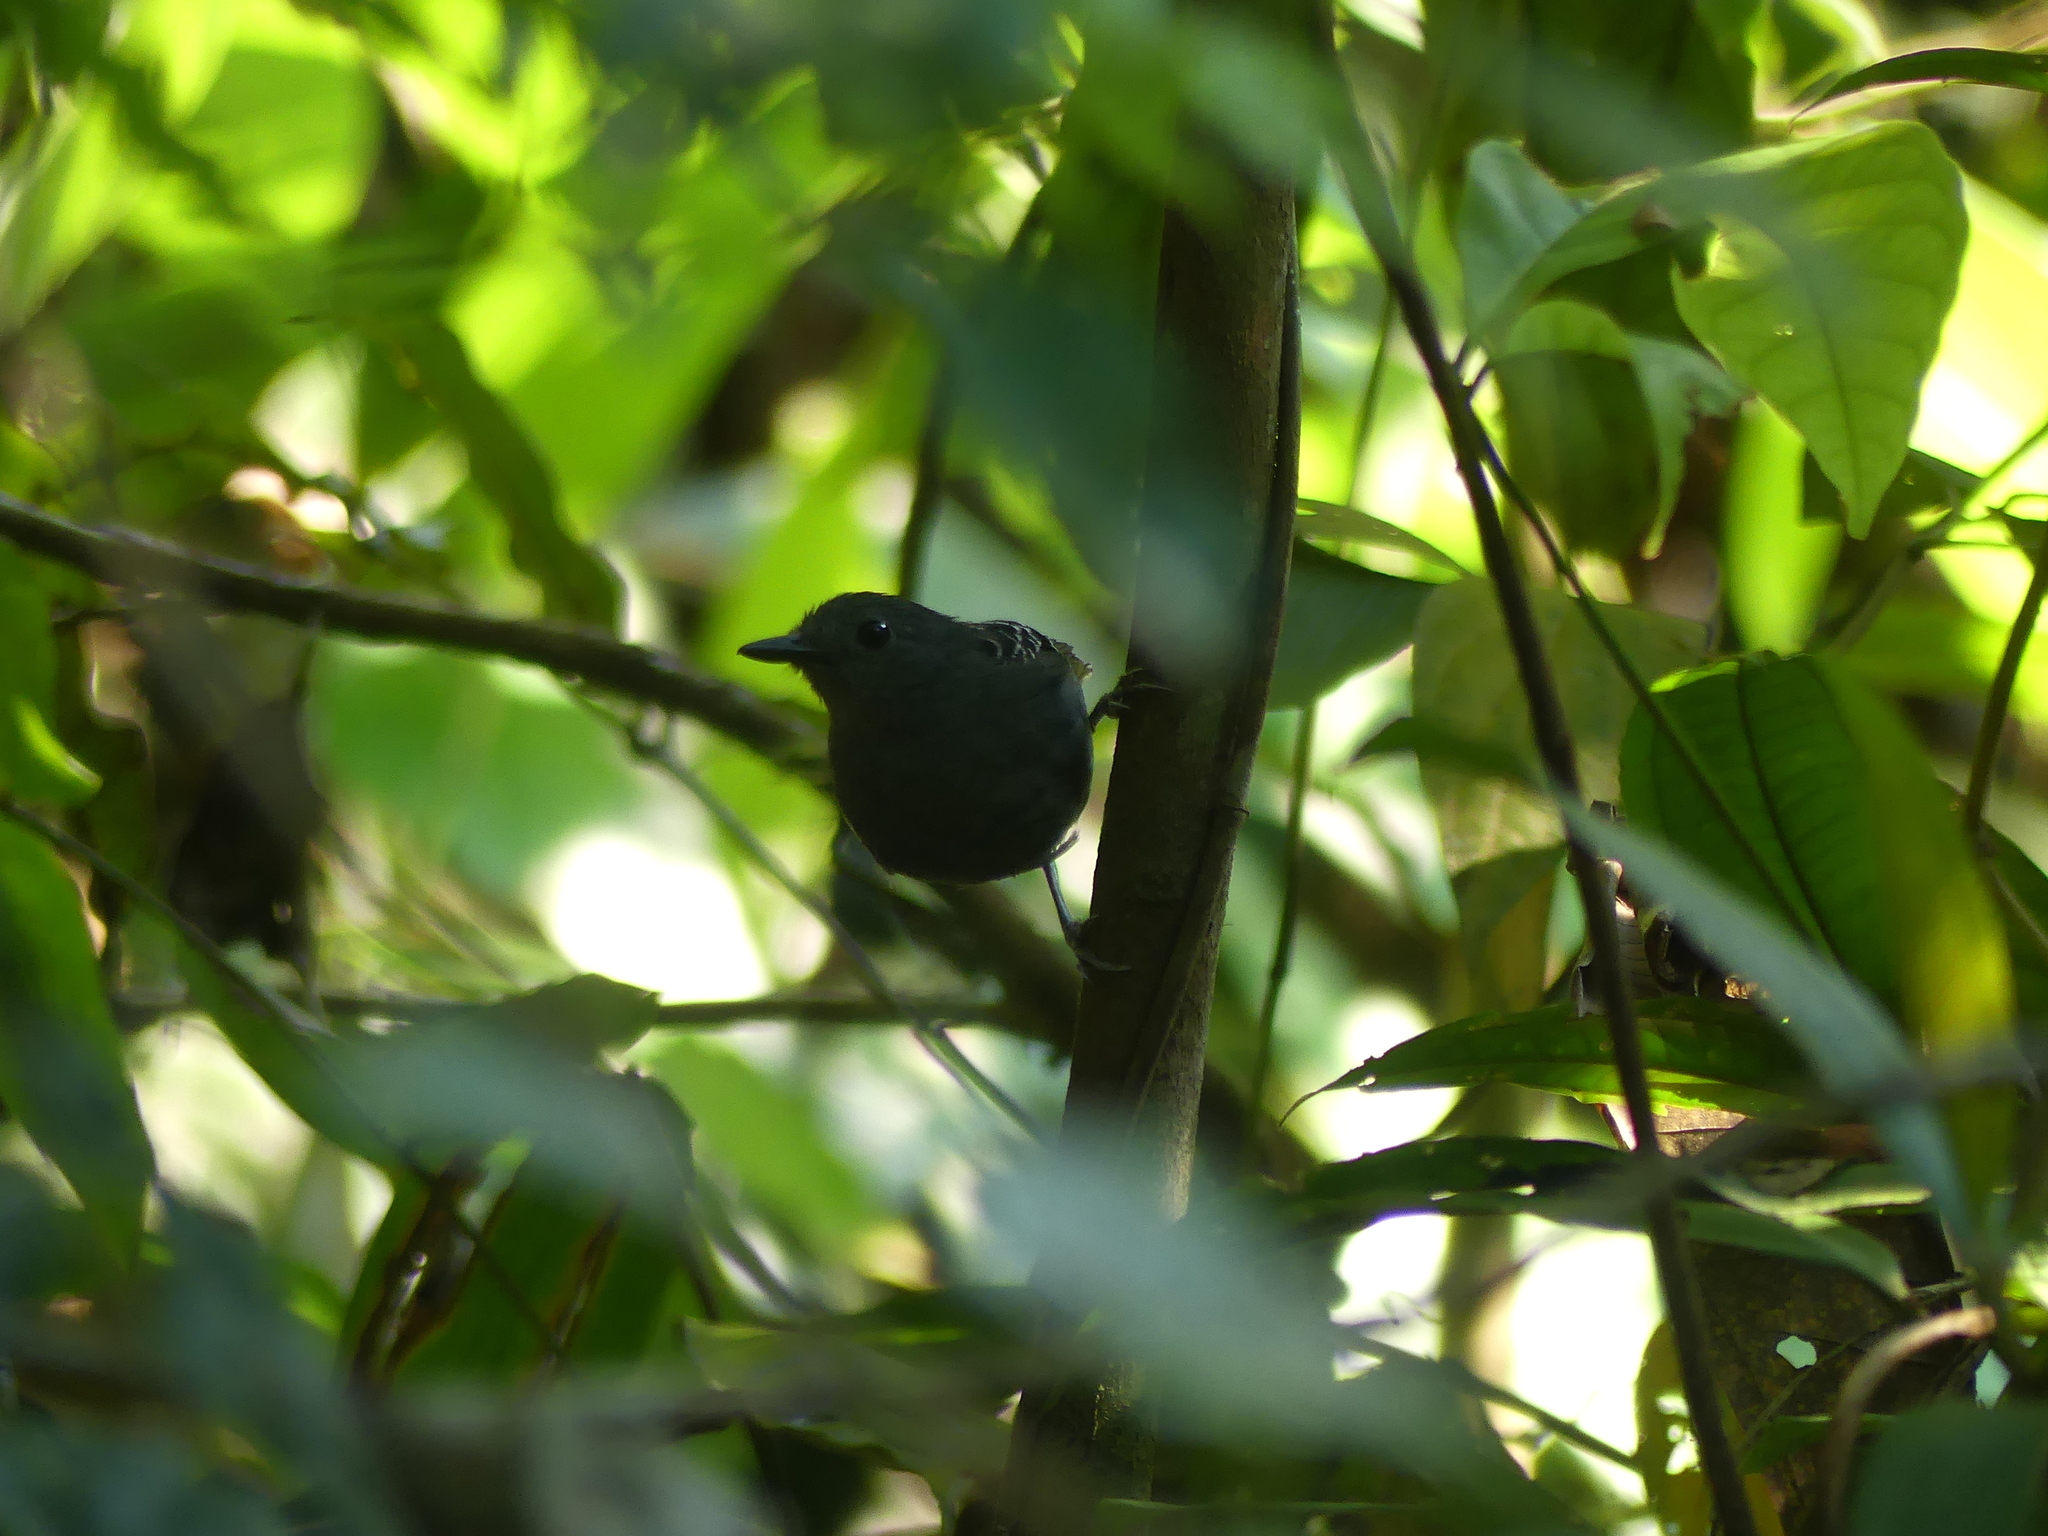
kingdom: Animalia
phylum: Chordata
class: Aves
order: Passeriformes
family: Thamnophilidae
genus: Willisornis
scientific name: Willisornis poecilinotus
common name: Common scale-backed antbird
